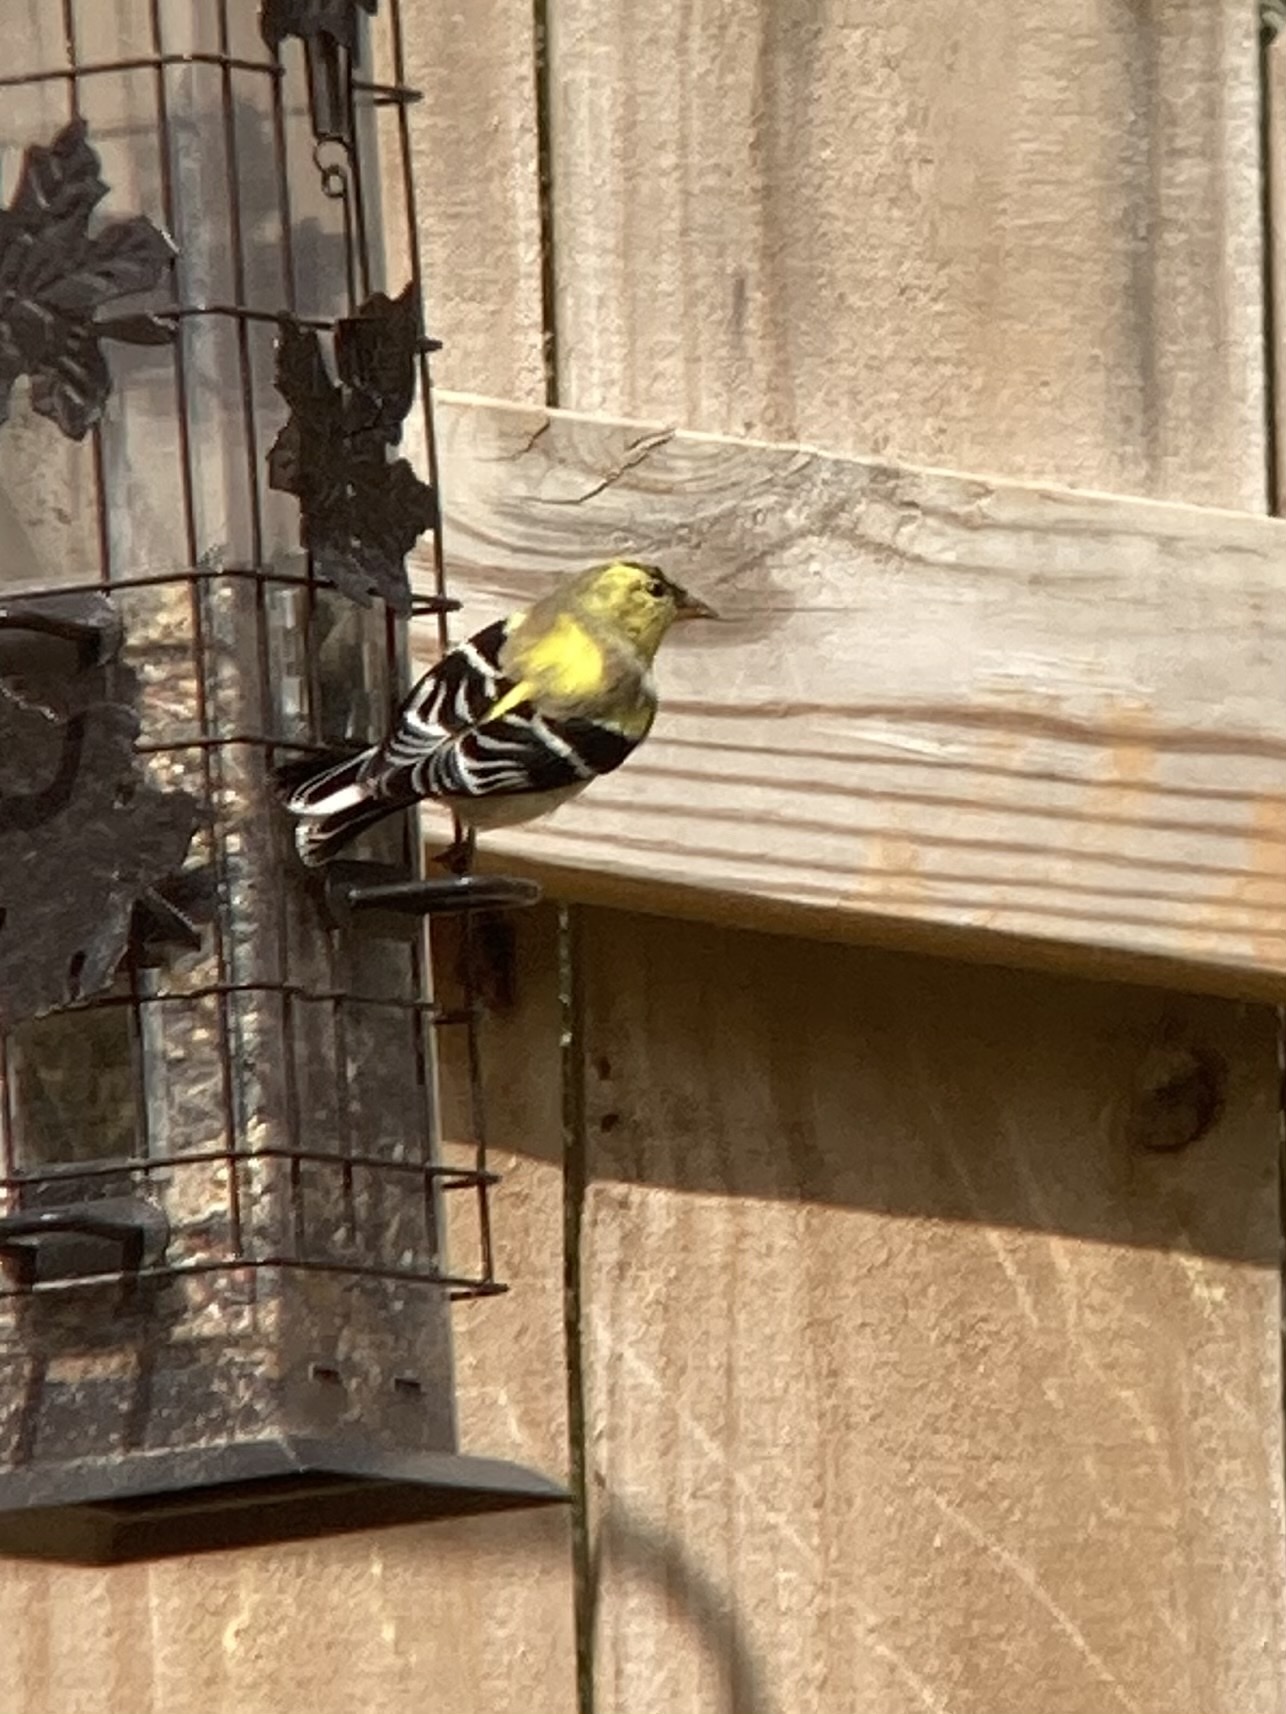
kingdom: Animalia
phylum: Chordata
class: Aves
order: Passeriformes
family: Fringillidae
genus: Spinus
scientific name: Spinus tristis
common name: American goldfinch
